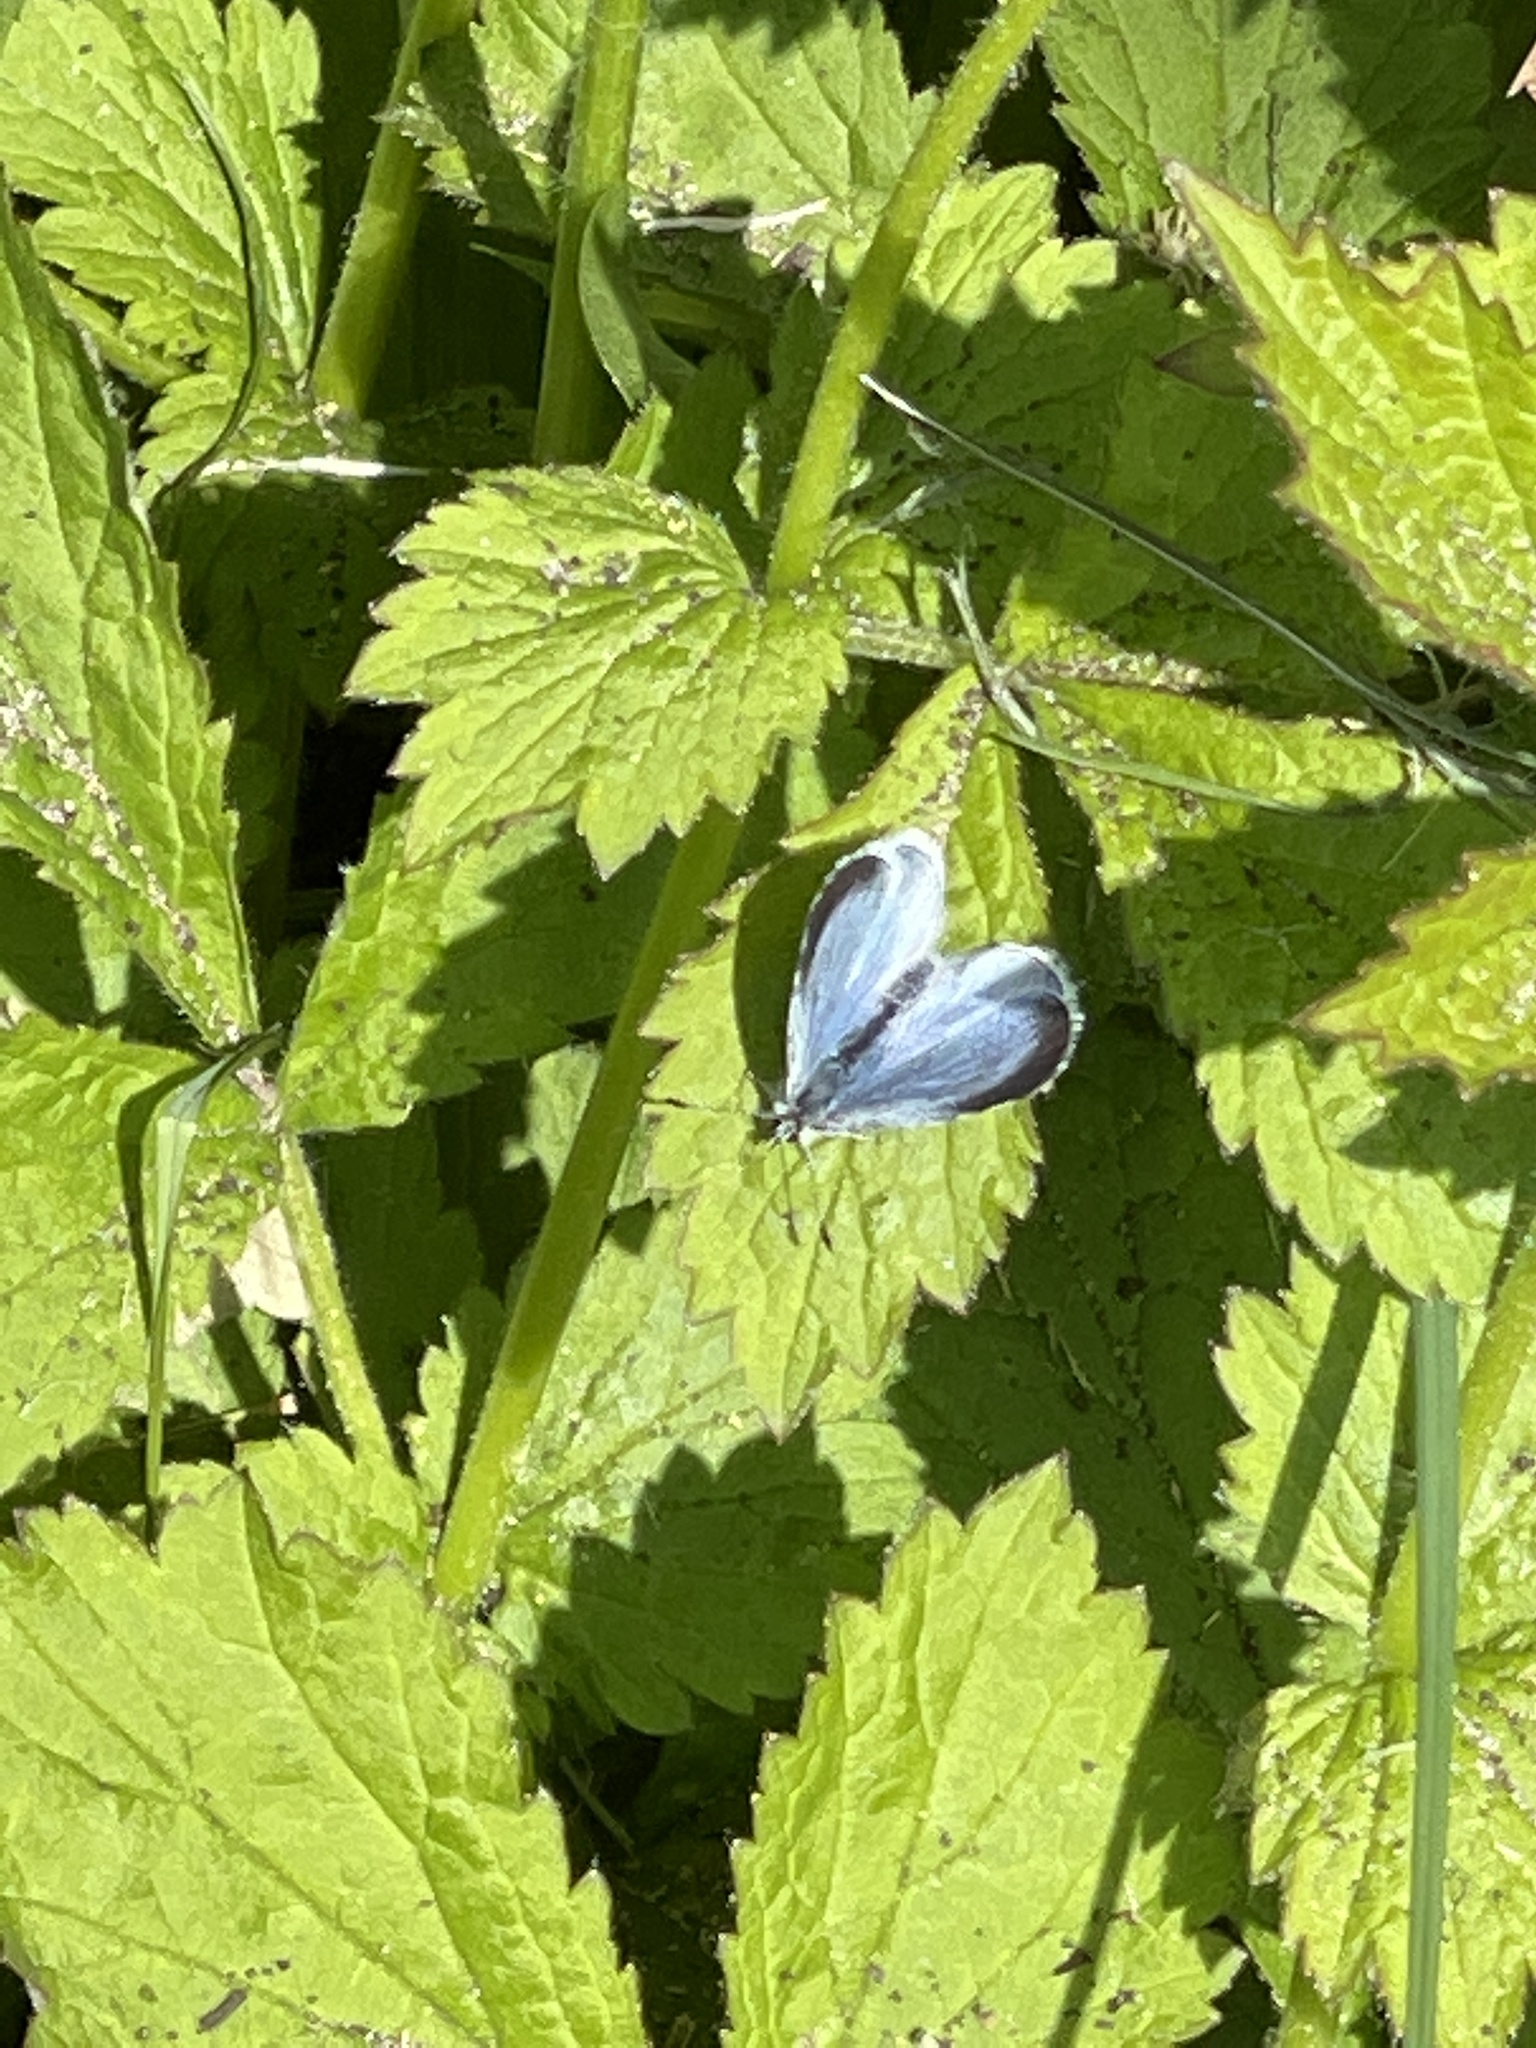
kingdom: Animalia
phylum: Arthropoda
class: Insecta
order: Lepidoptera
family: Lycaenidae
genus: Celastrina
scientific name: Celastrina argiolus
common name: Holly blue
